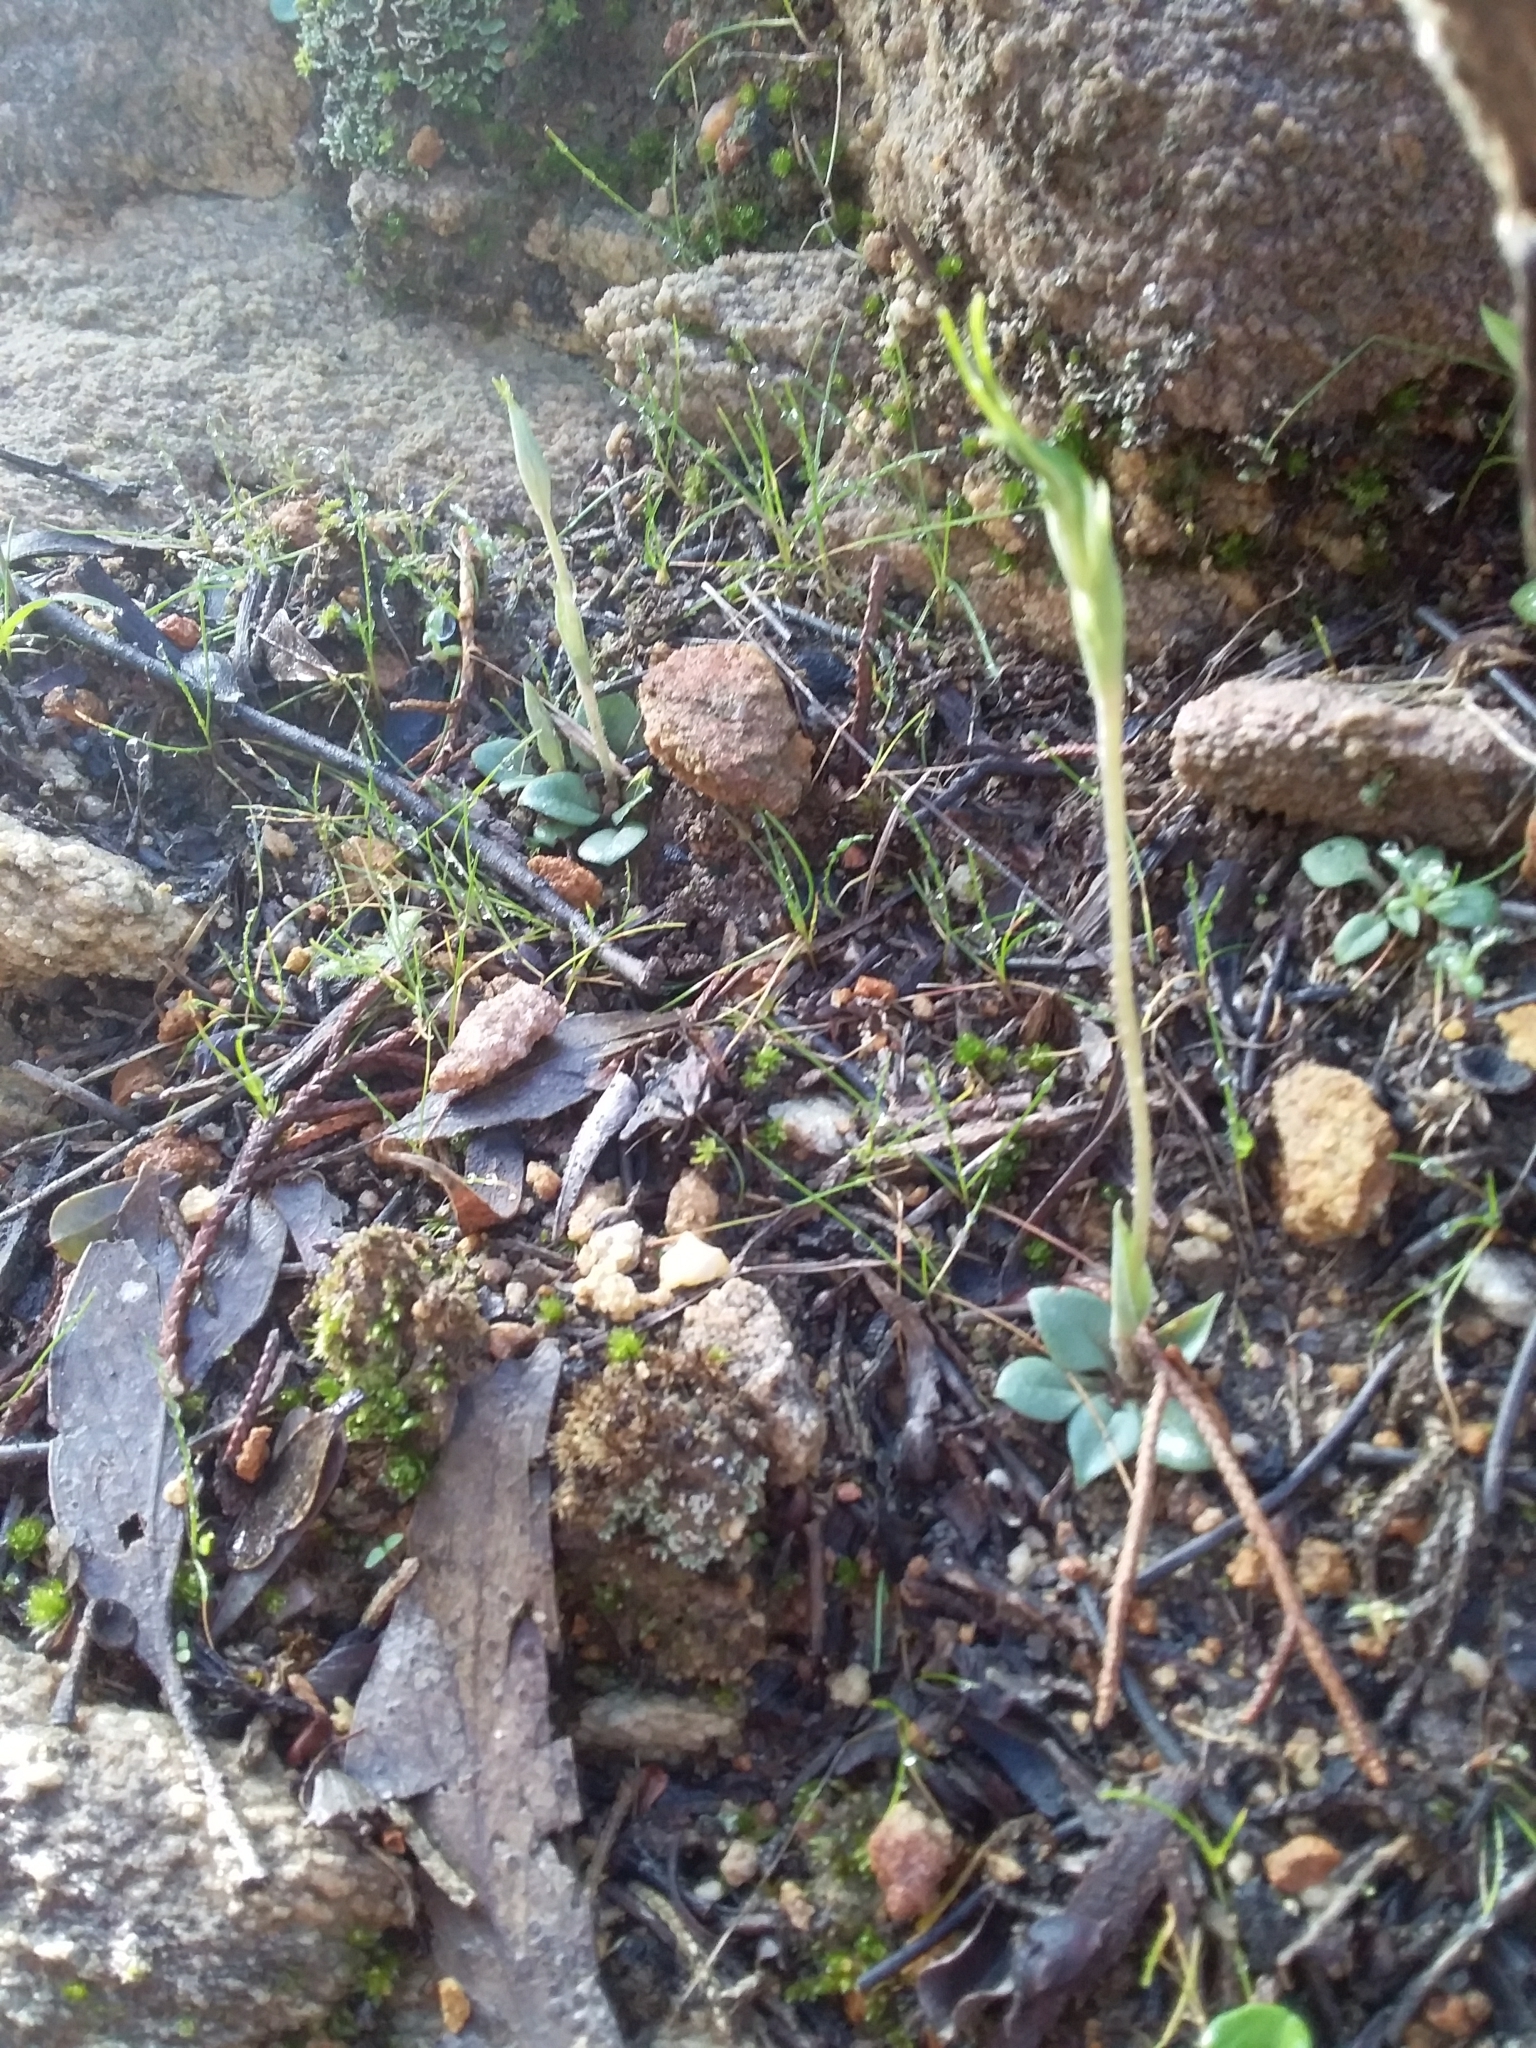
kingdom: Plantae
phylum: Tracheophyta
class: Liliopsida
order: Asparagales
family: Orchidaceae
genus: Pterostylis
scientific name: Pterostylis nana
